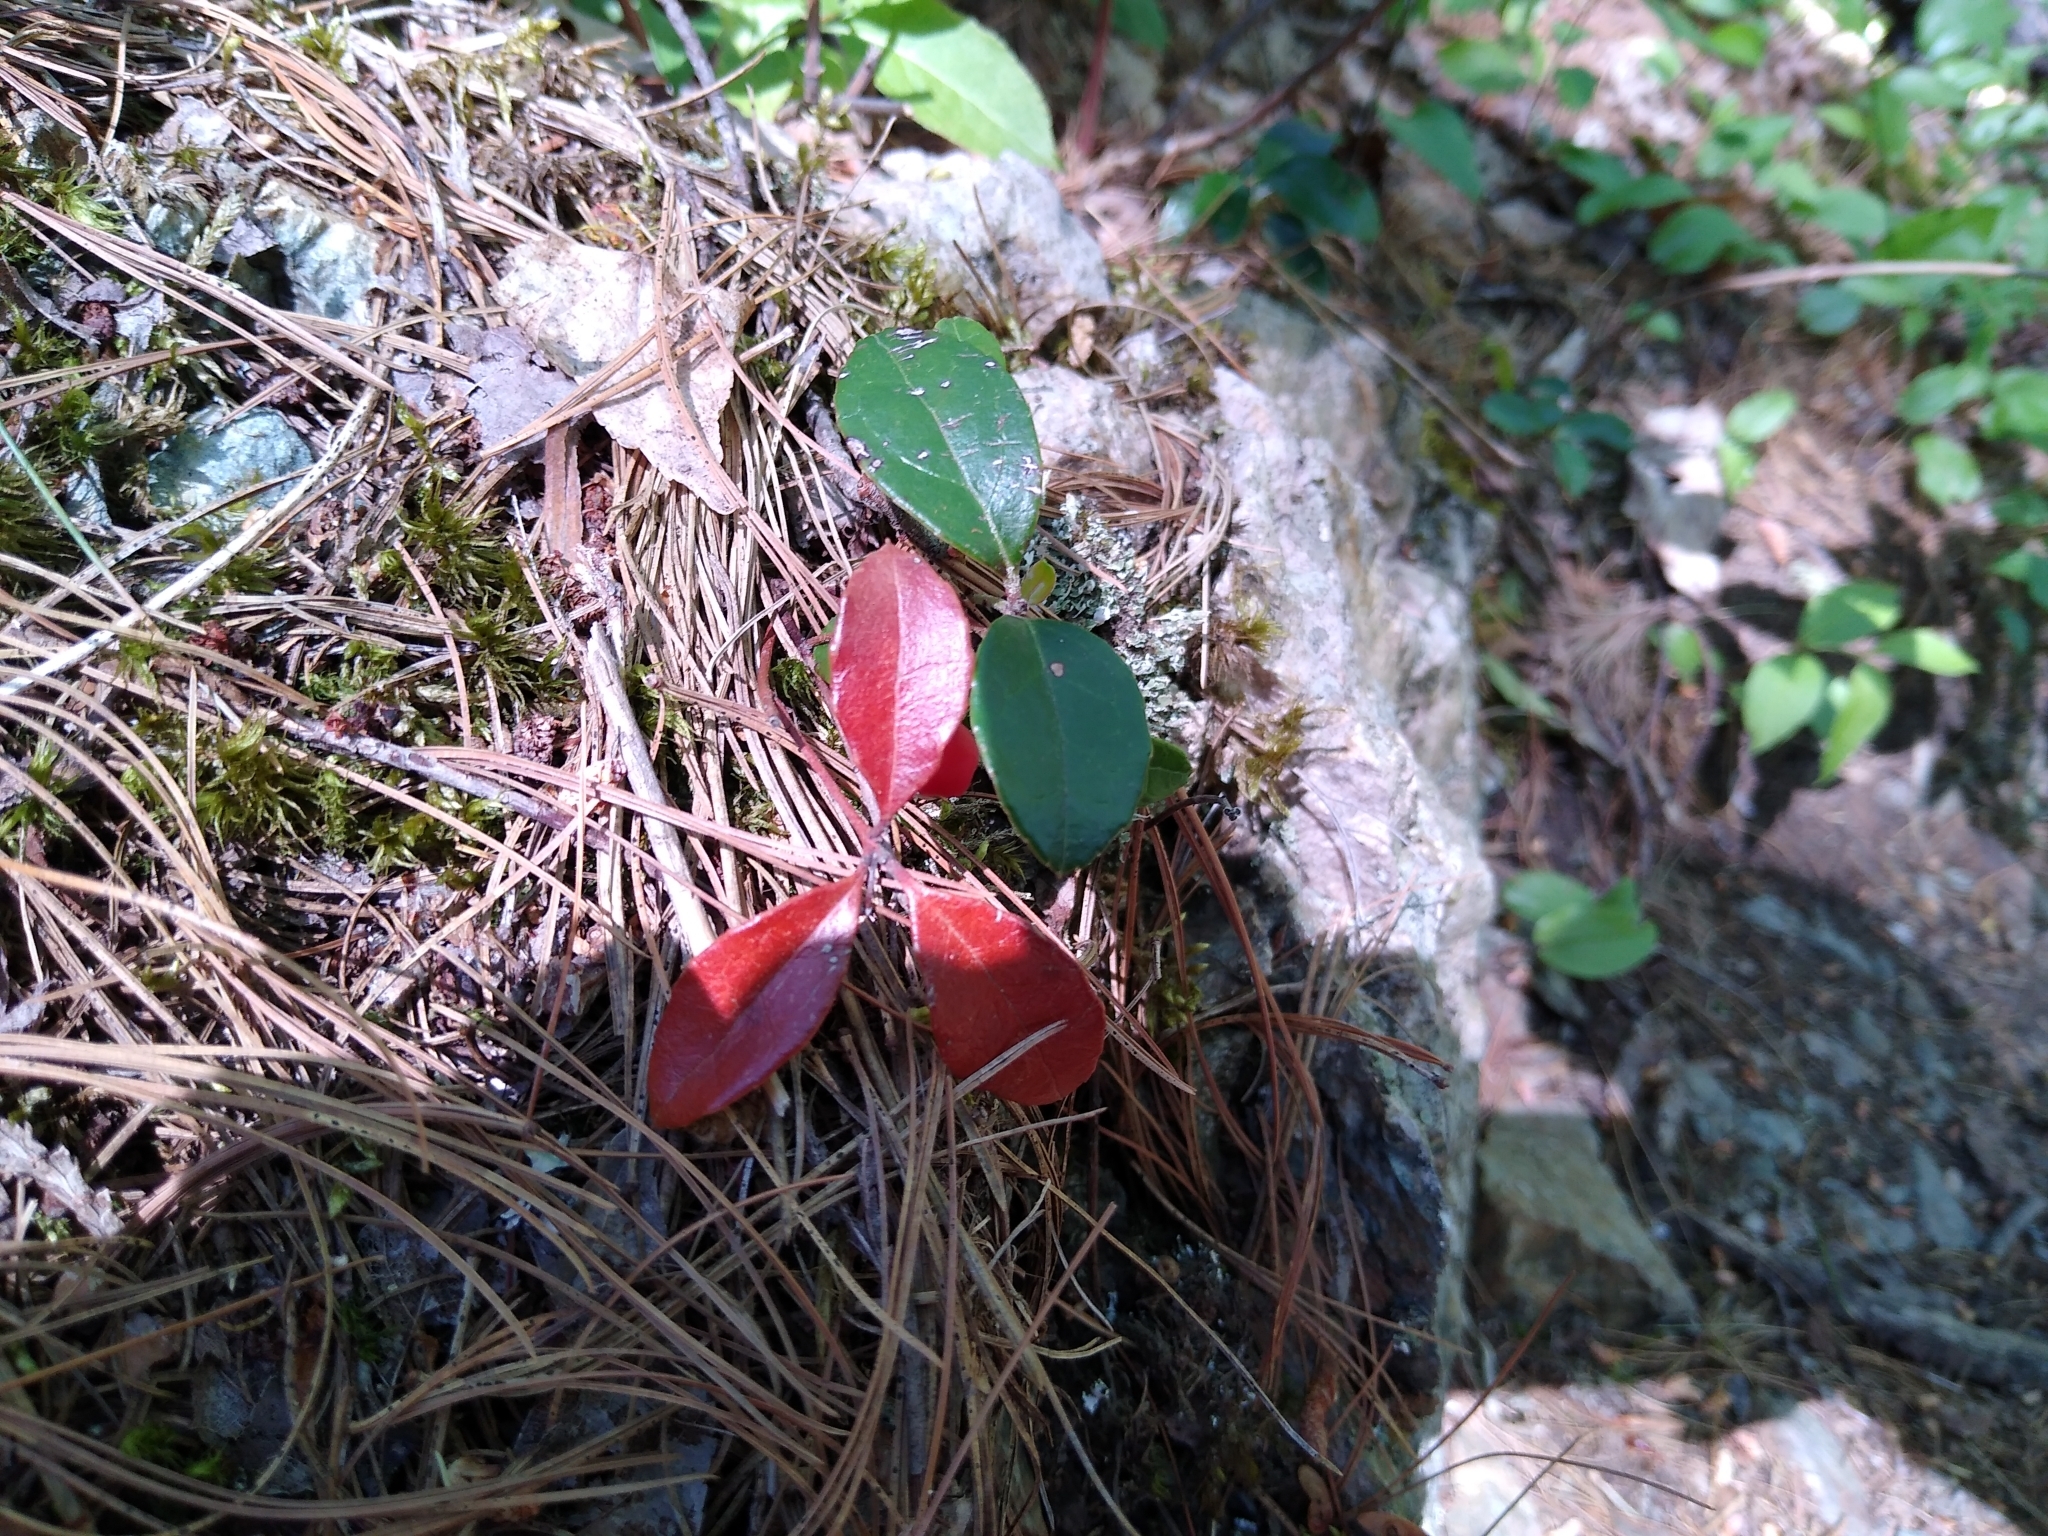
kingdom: Plantae
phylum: Tracheophyta
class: Magnoliopsida
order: Ericales
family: Ericaceae
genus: Gaultheria
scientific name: Gaultheria procumbens
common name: Checkerberry
